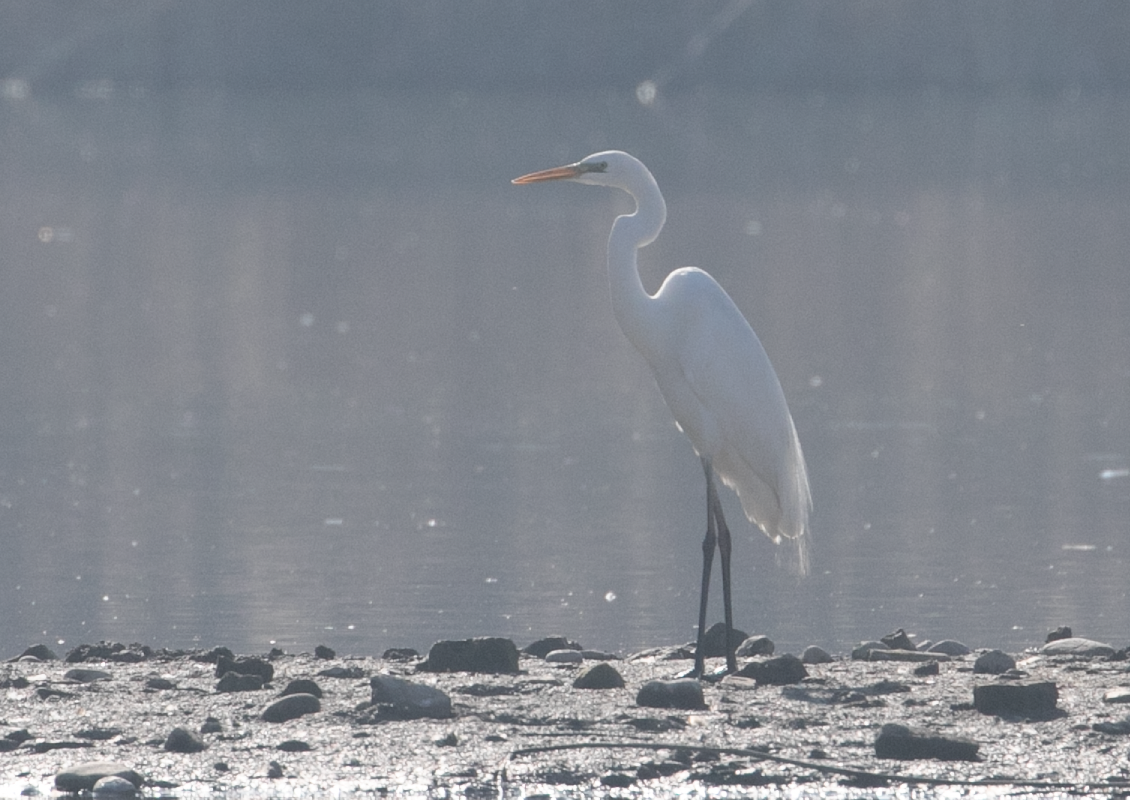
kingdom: Animalia
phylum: Chordata
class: Aves
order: Pelecaniformes
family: Ardeidae
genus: Ardea
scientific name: Ardea alba
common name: Great egret
